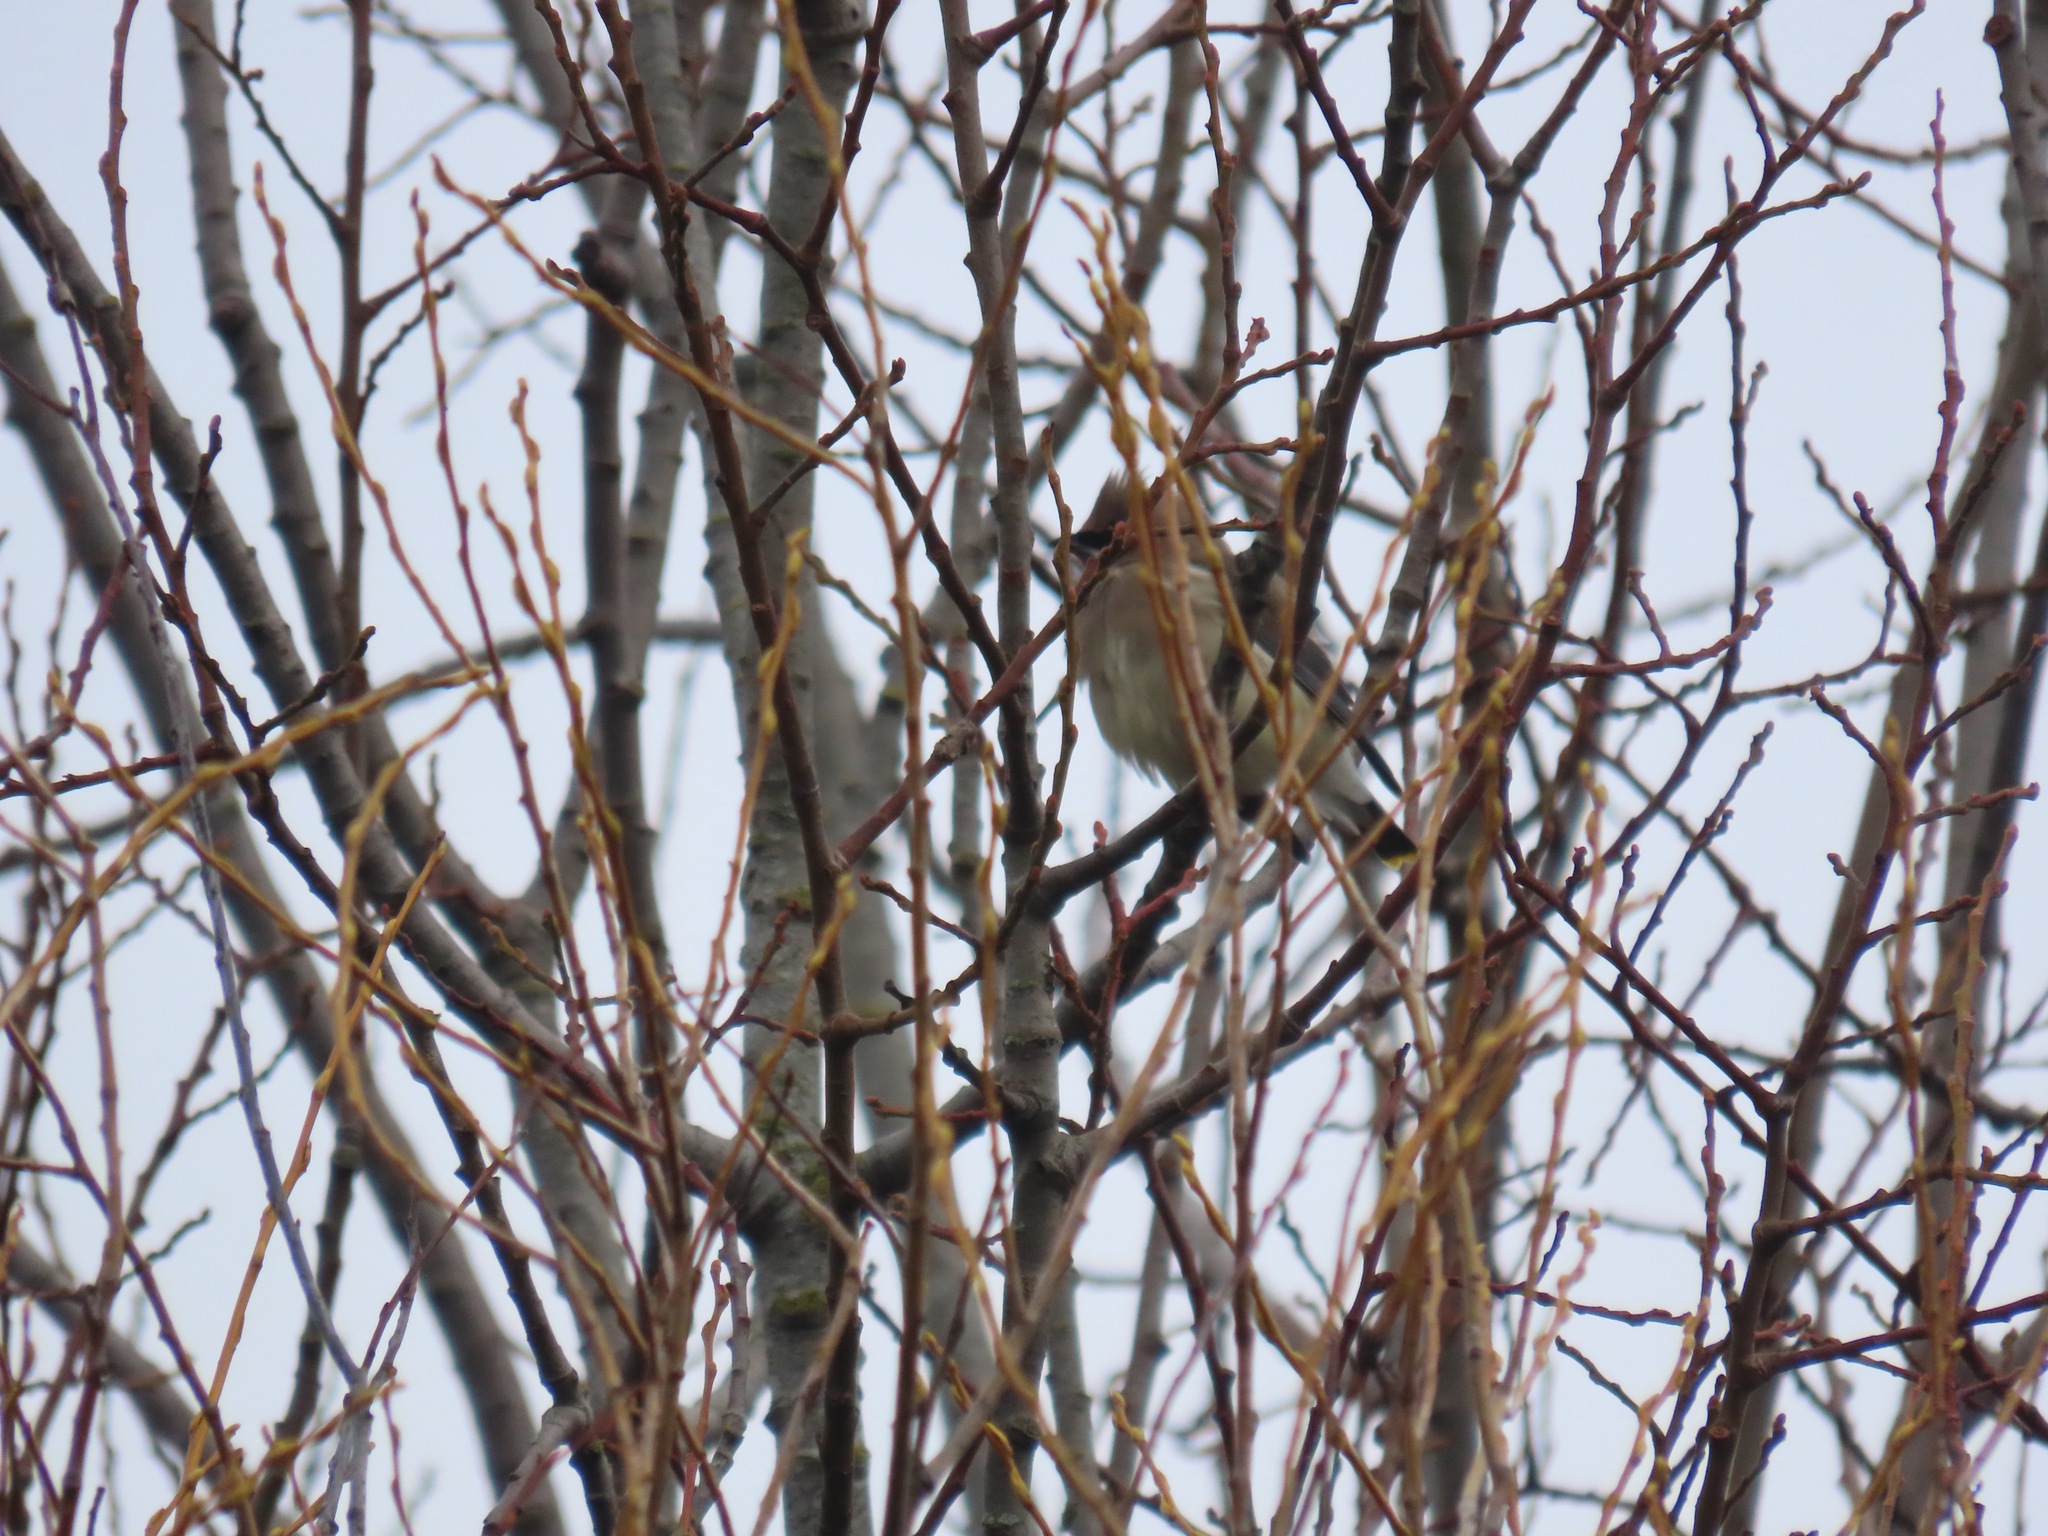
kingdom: Animalia
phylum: Chordata
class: Aves
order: Passeriformes
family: Bombycillidae
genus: Bombycilla
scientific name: Bombycilla cedrorum
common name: Cedar waxwing
